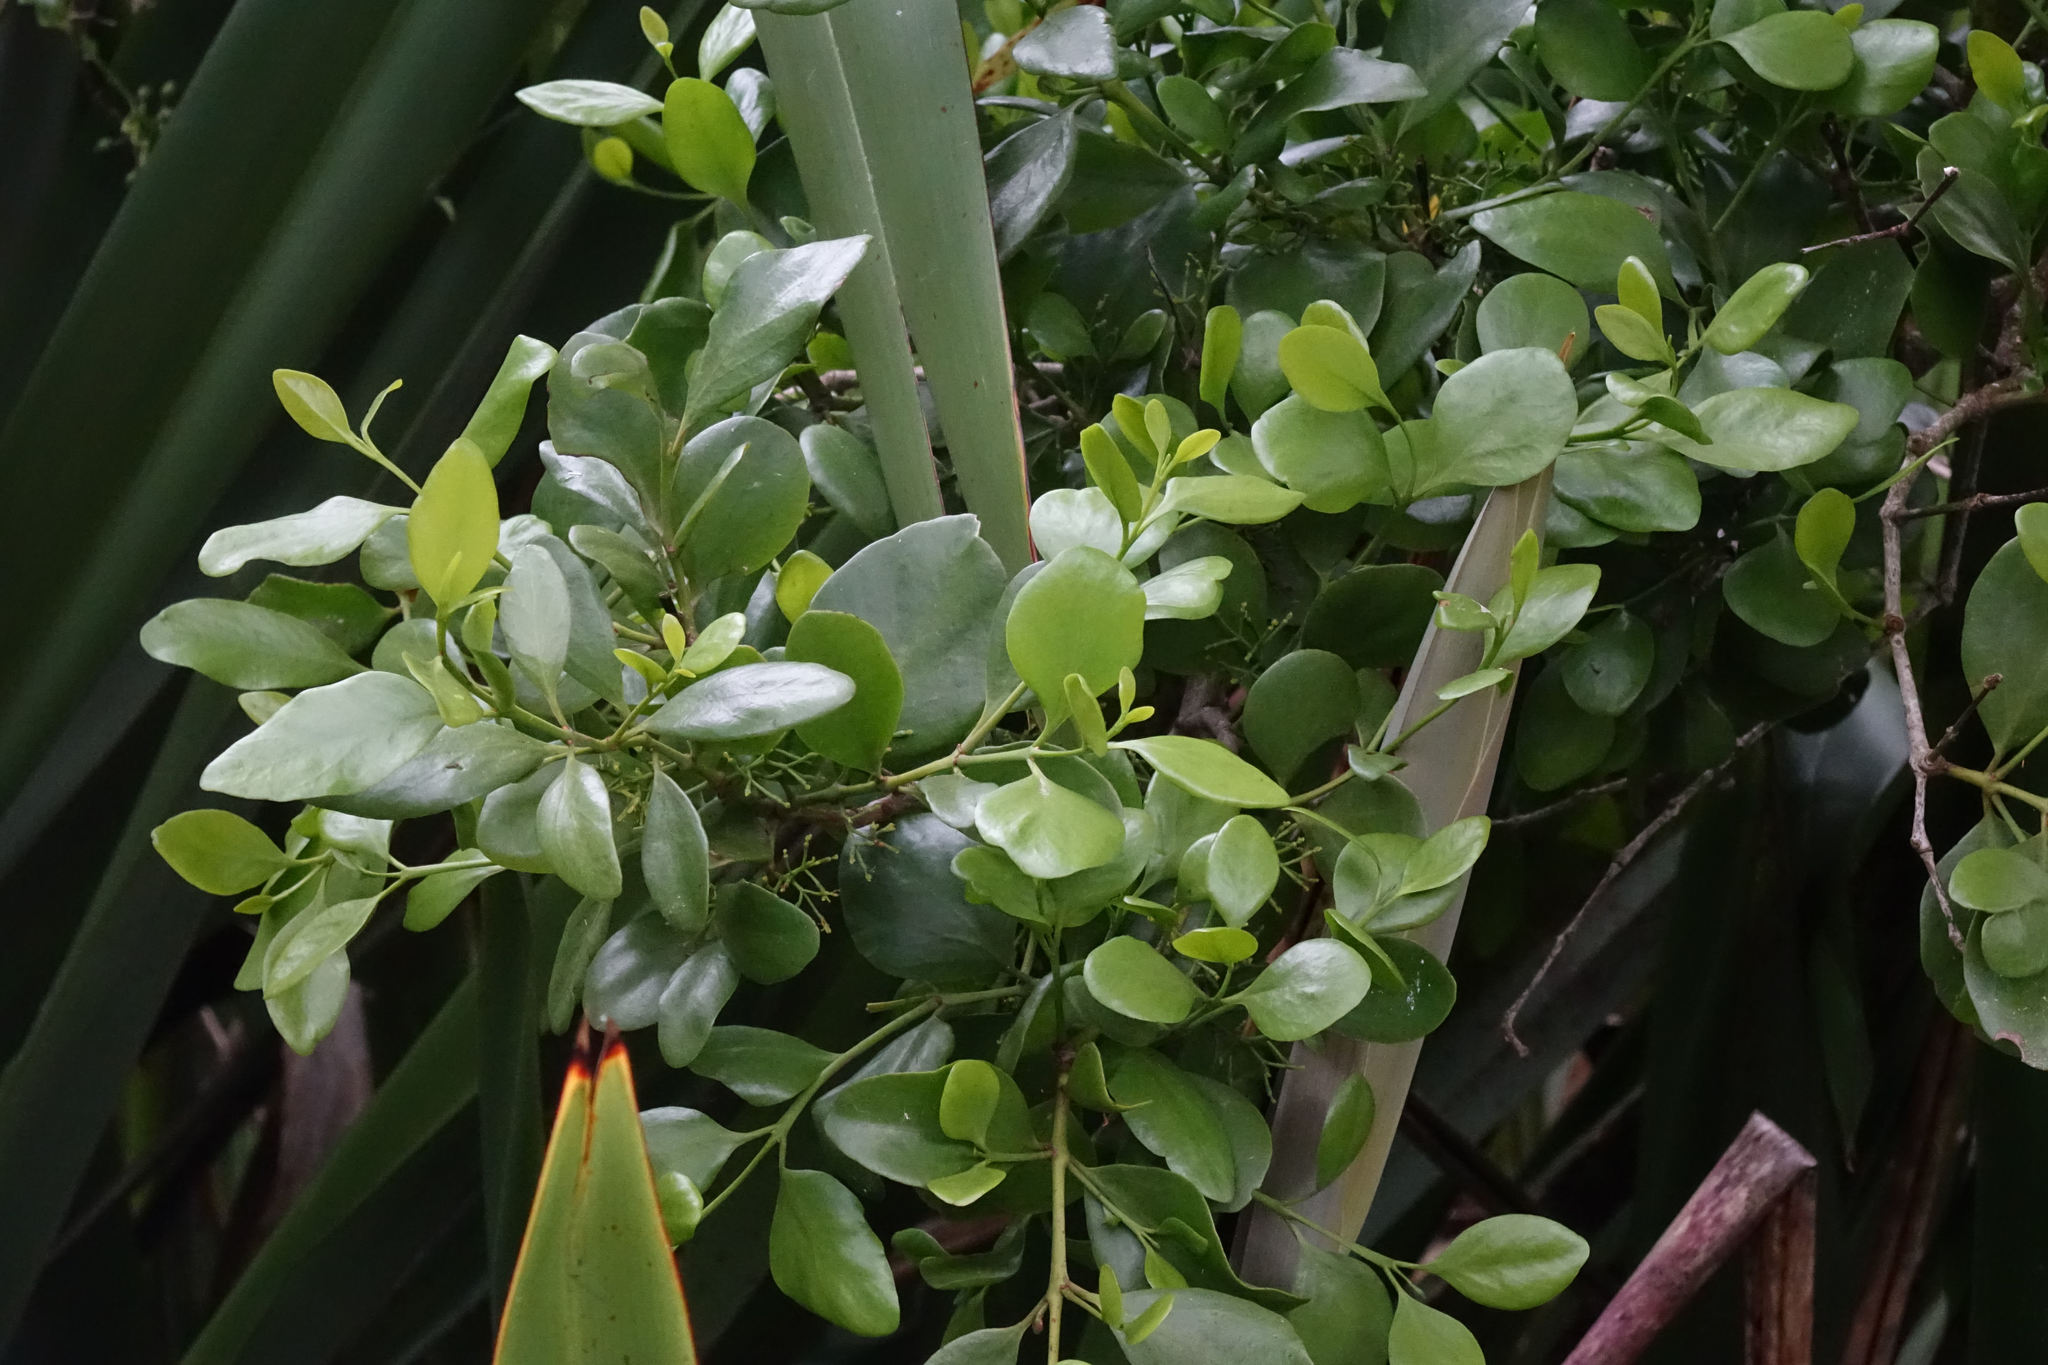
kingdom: Plantae
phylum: Tracheophyta
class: Magnoliopsida
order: Santalales
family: Loranthaceae
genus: Ileostylus
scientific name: Ileostylus micranthus
